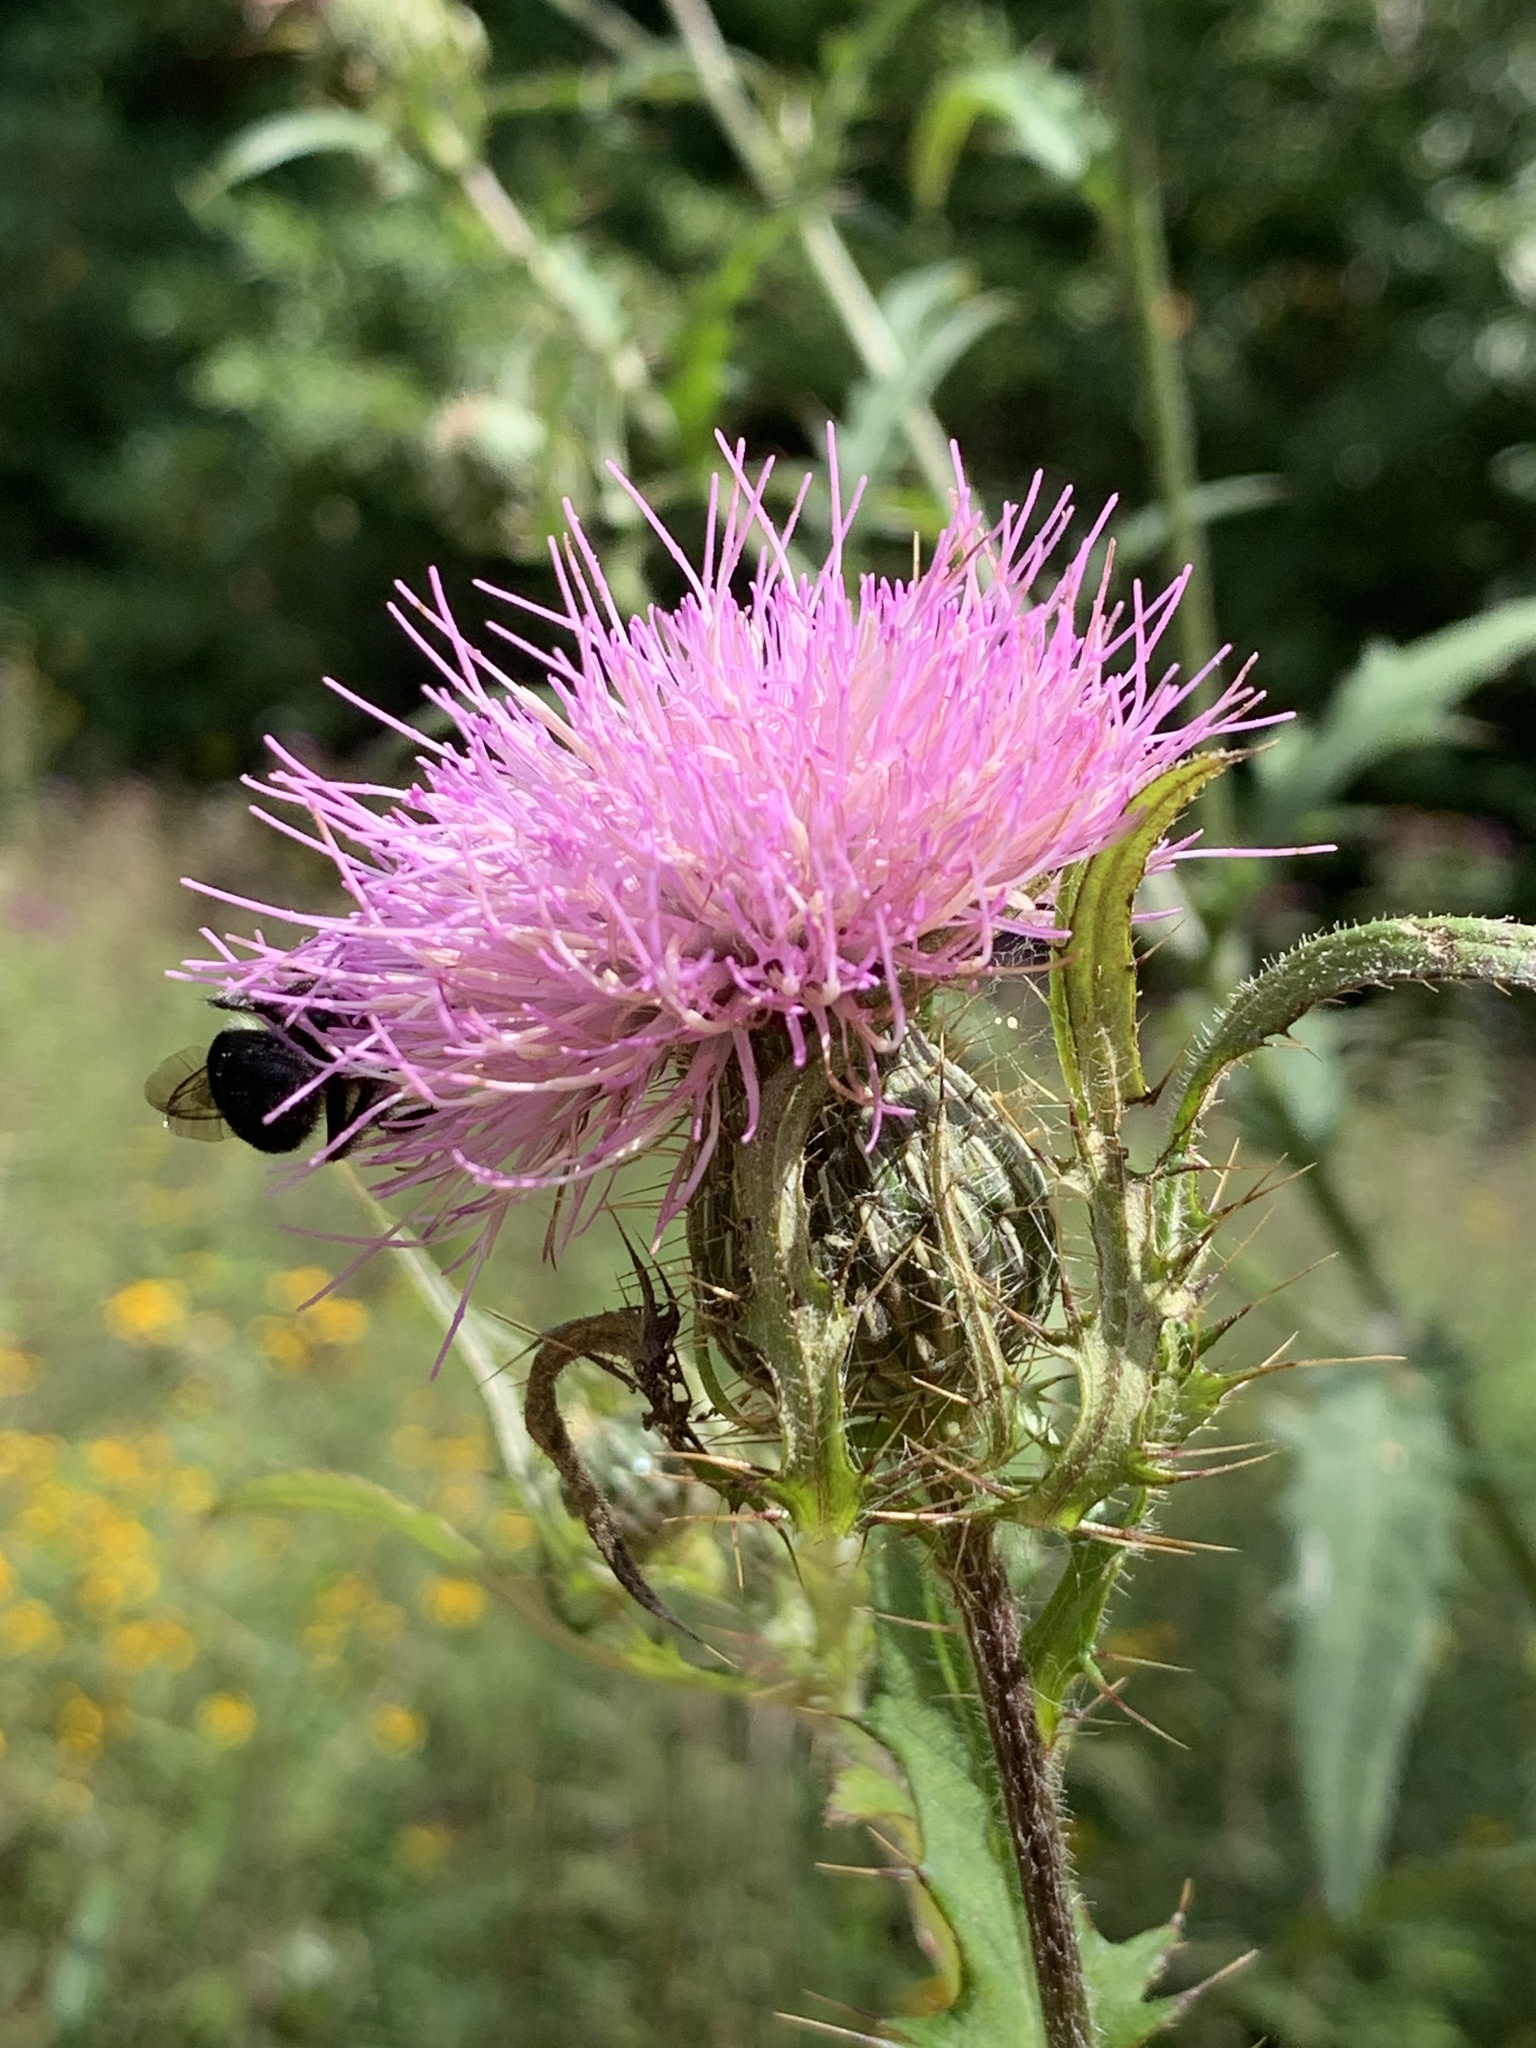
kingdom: Plantae
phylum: Tracheophyta
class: Magnoliopsida
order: Asterales
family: Asteraceae
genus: Cirsium
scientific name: Cirsium altissimum
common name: Roadside thistle
